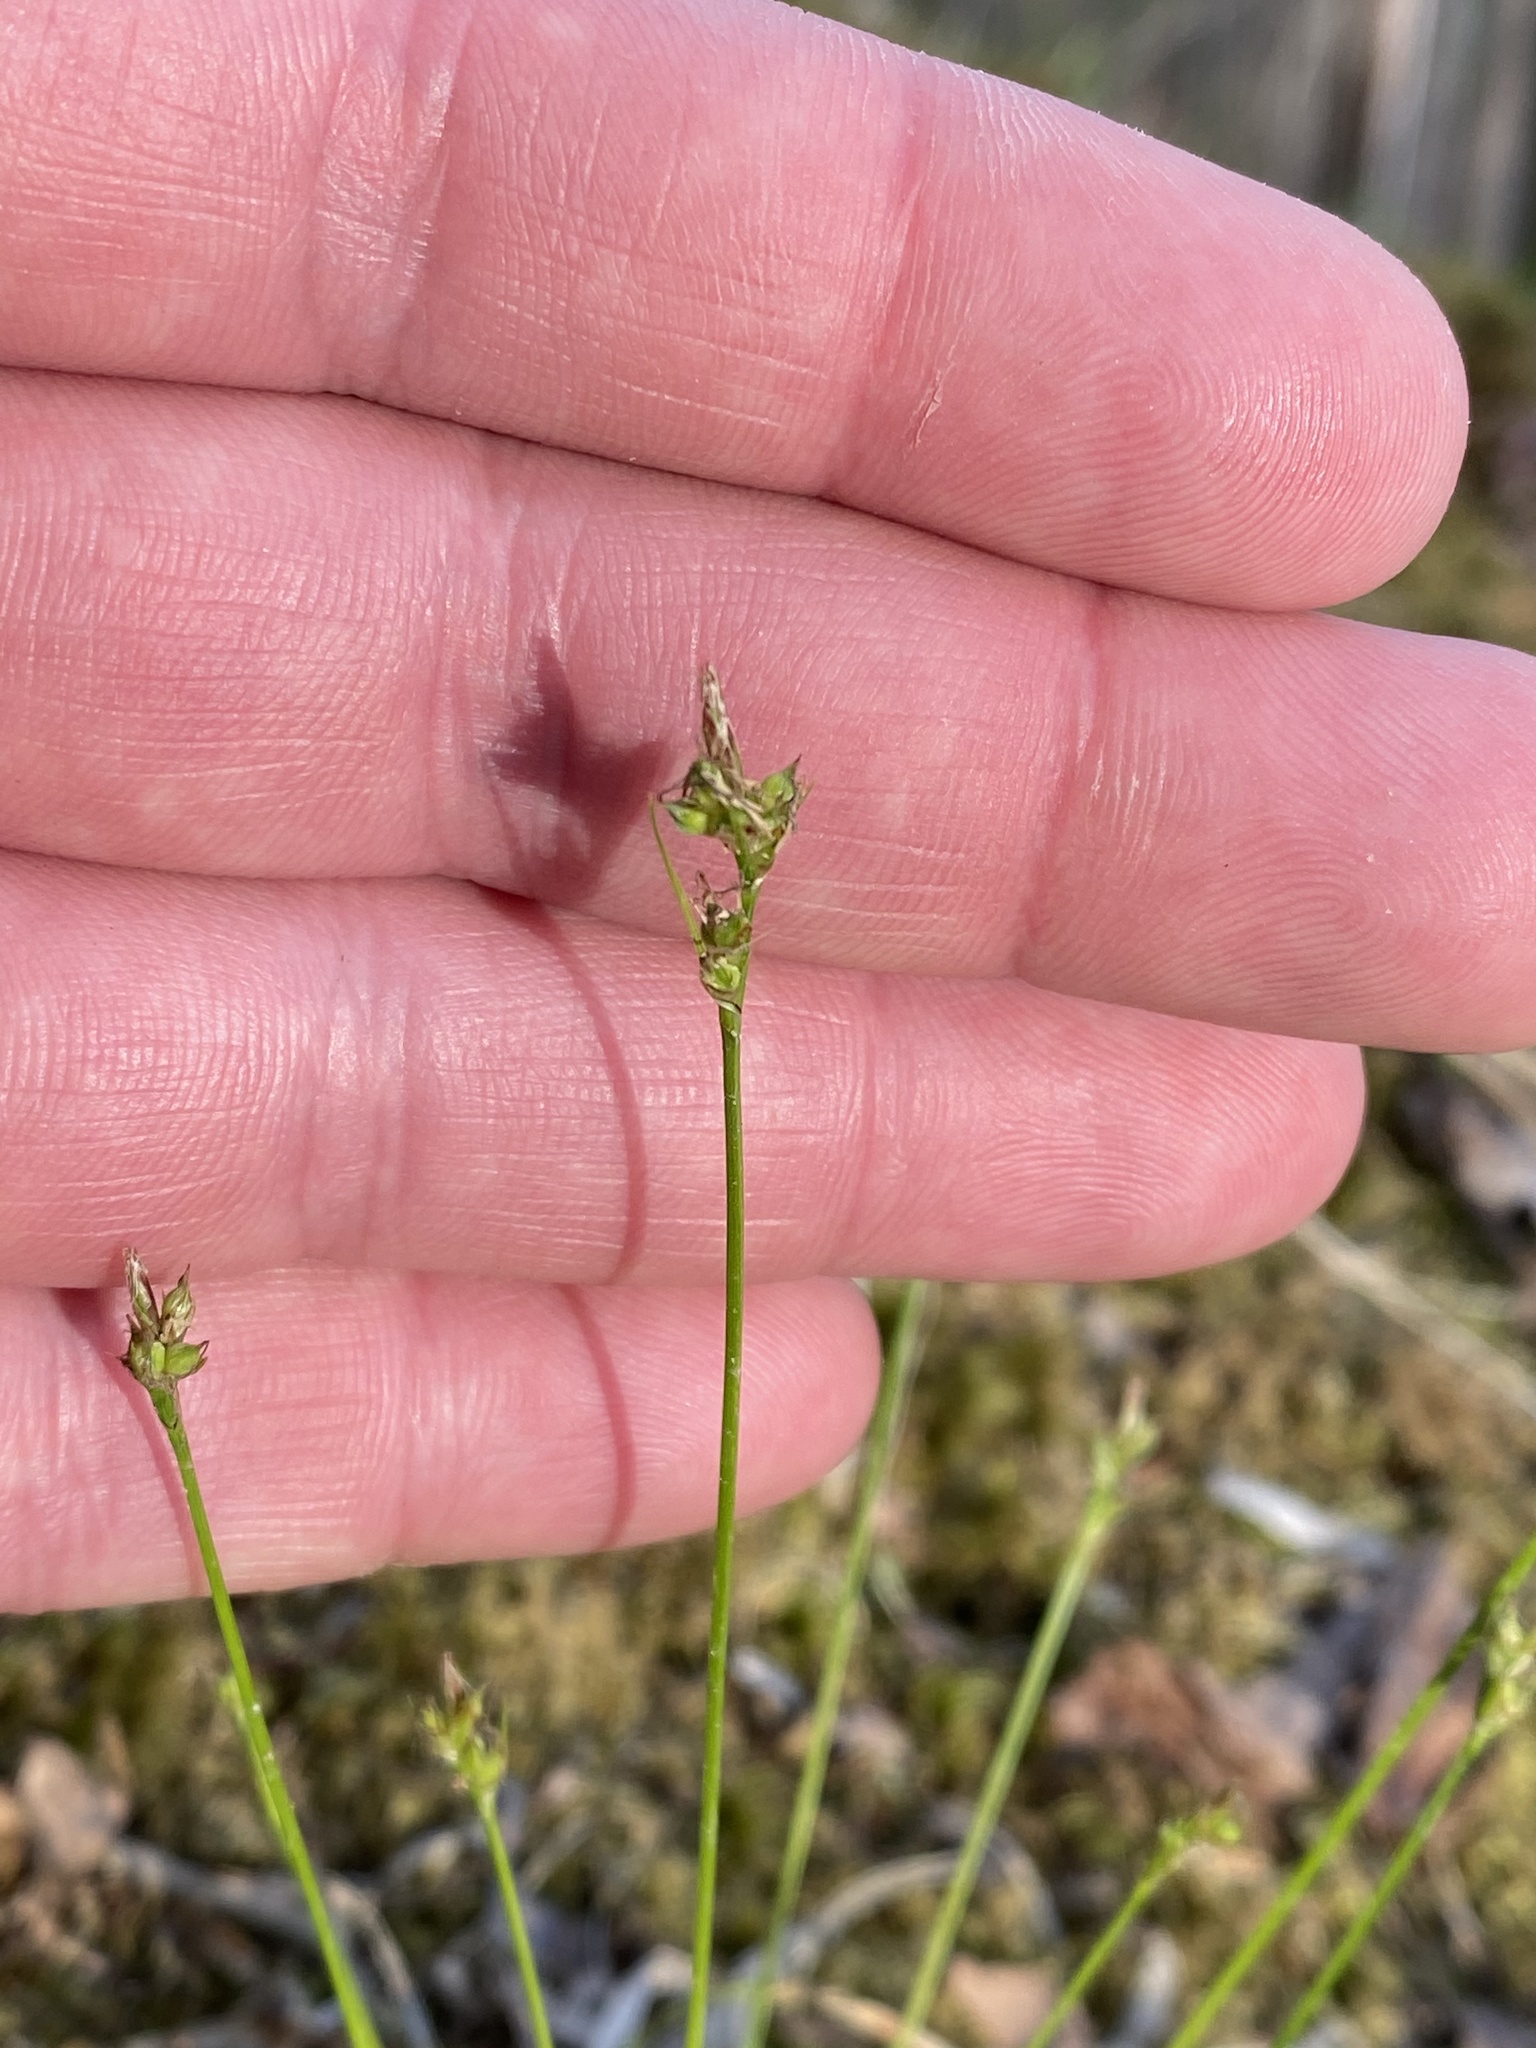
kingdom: Plantae
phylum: Tracheophyta
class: Liliopsida
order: Poales
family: Cyperaceae
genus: Carex
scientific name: Carex eburnea
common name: Bristle-leaved sedge
